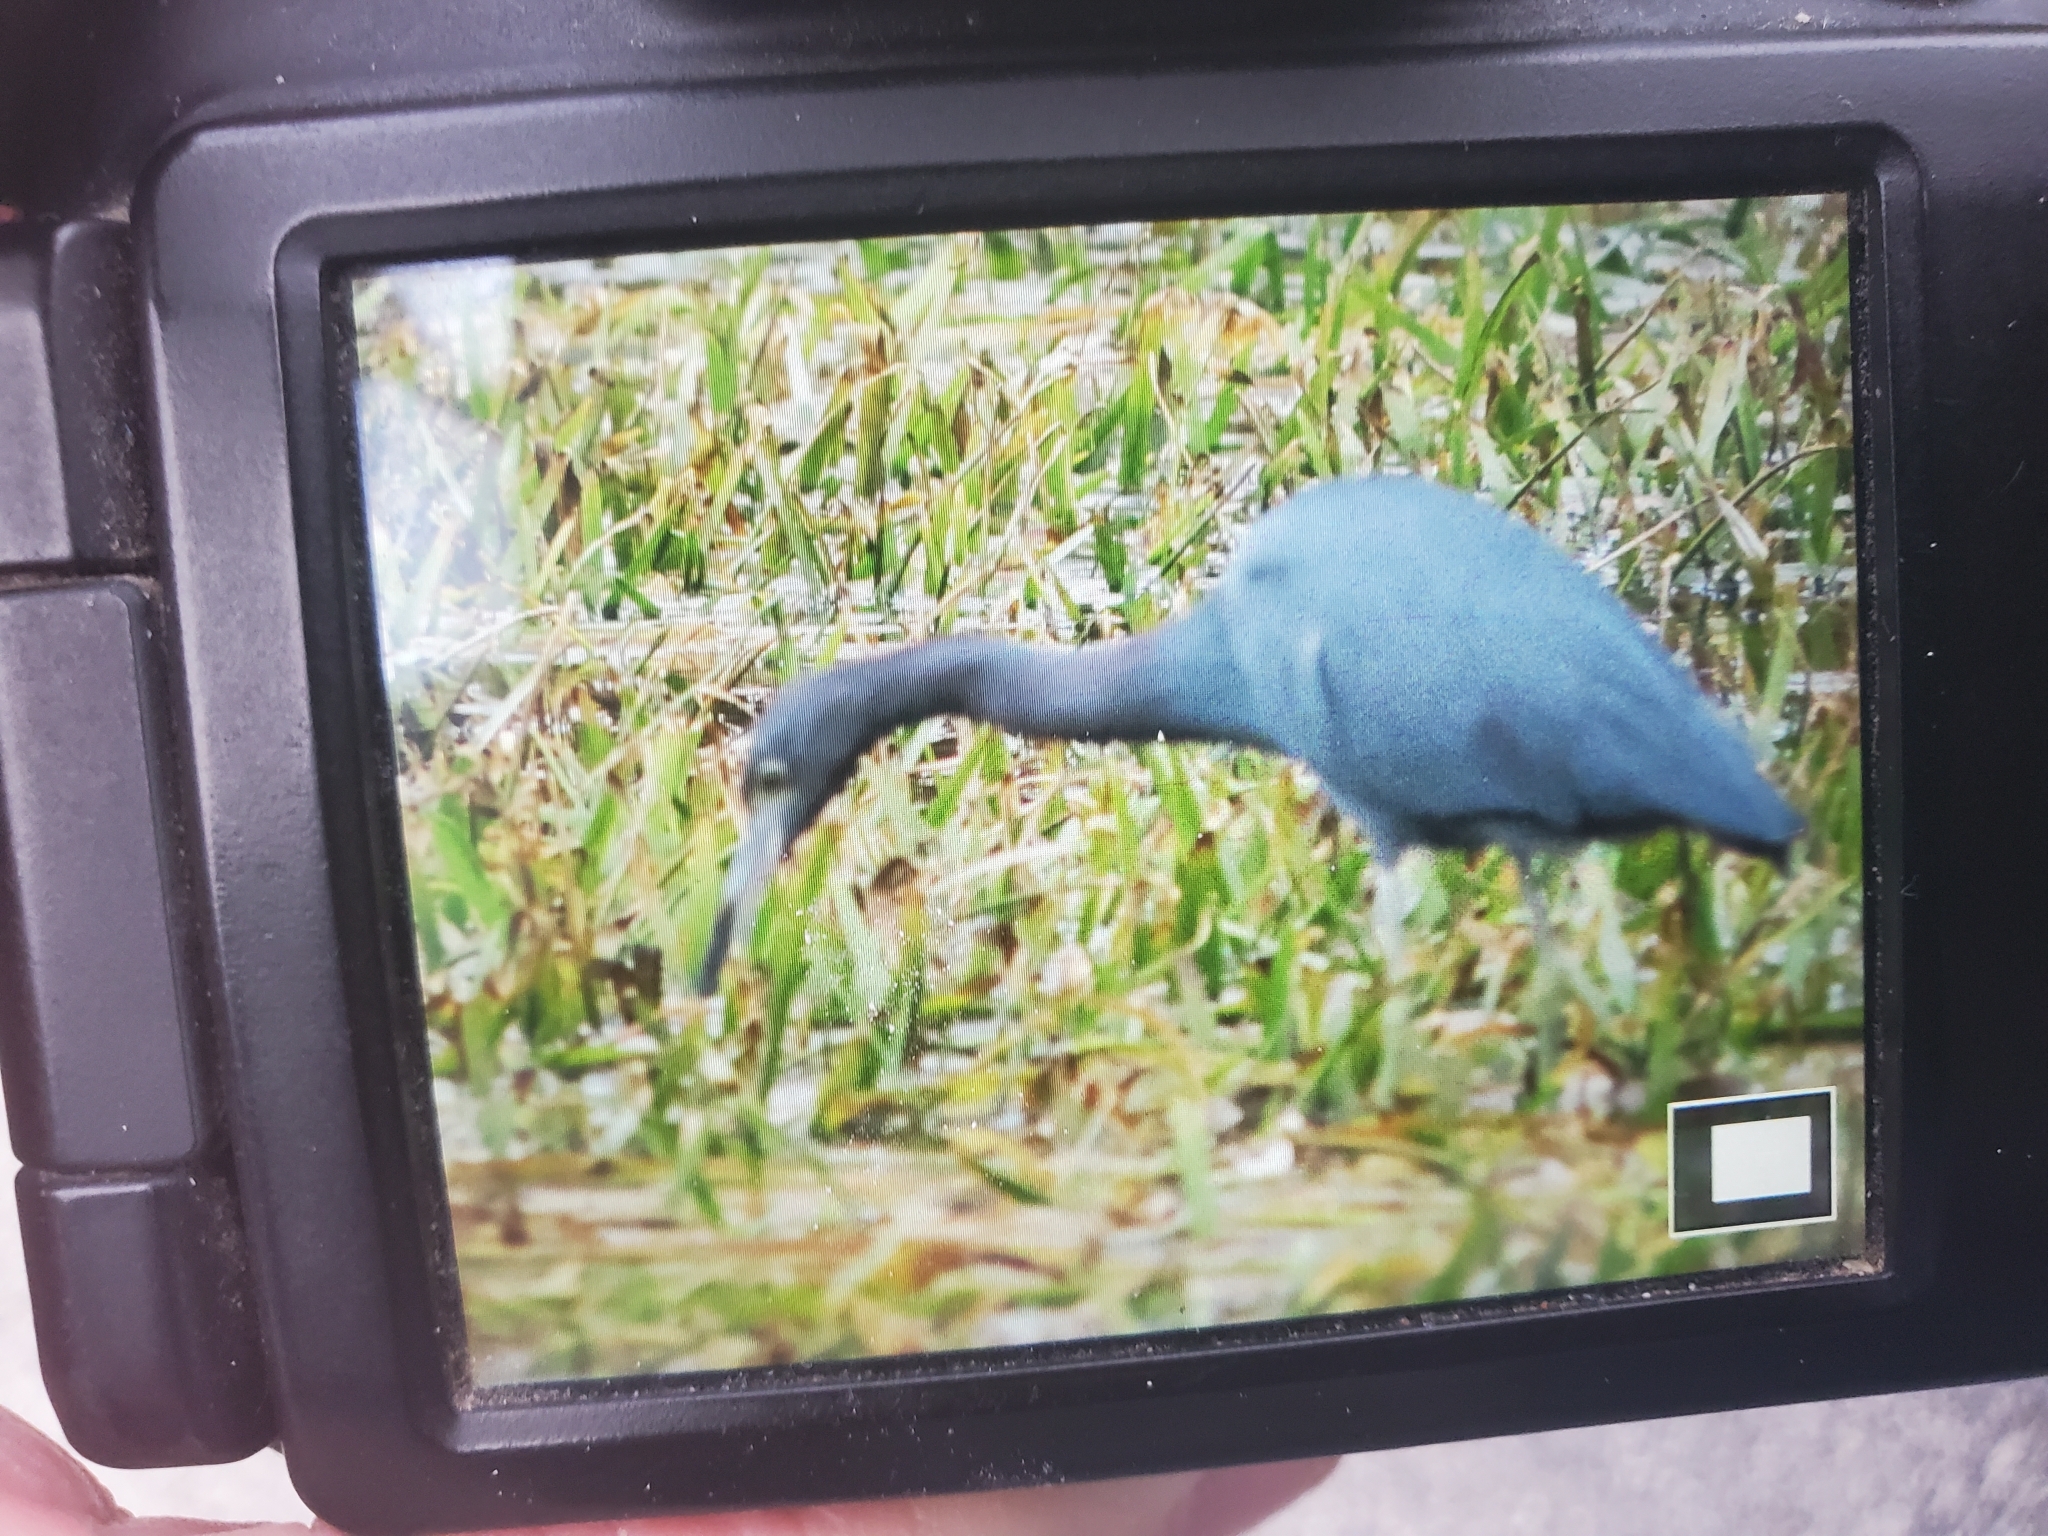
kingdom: Animalia
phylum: Chordata
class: Aves
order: Pelecaniformes
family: Ardeidae
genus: Egretta
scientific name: Egretta caerulea
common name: Little blue heron
